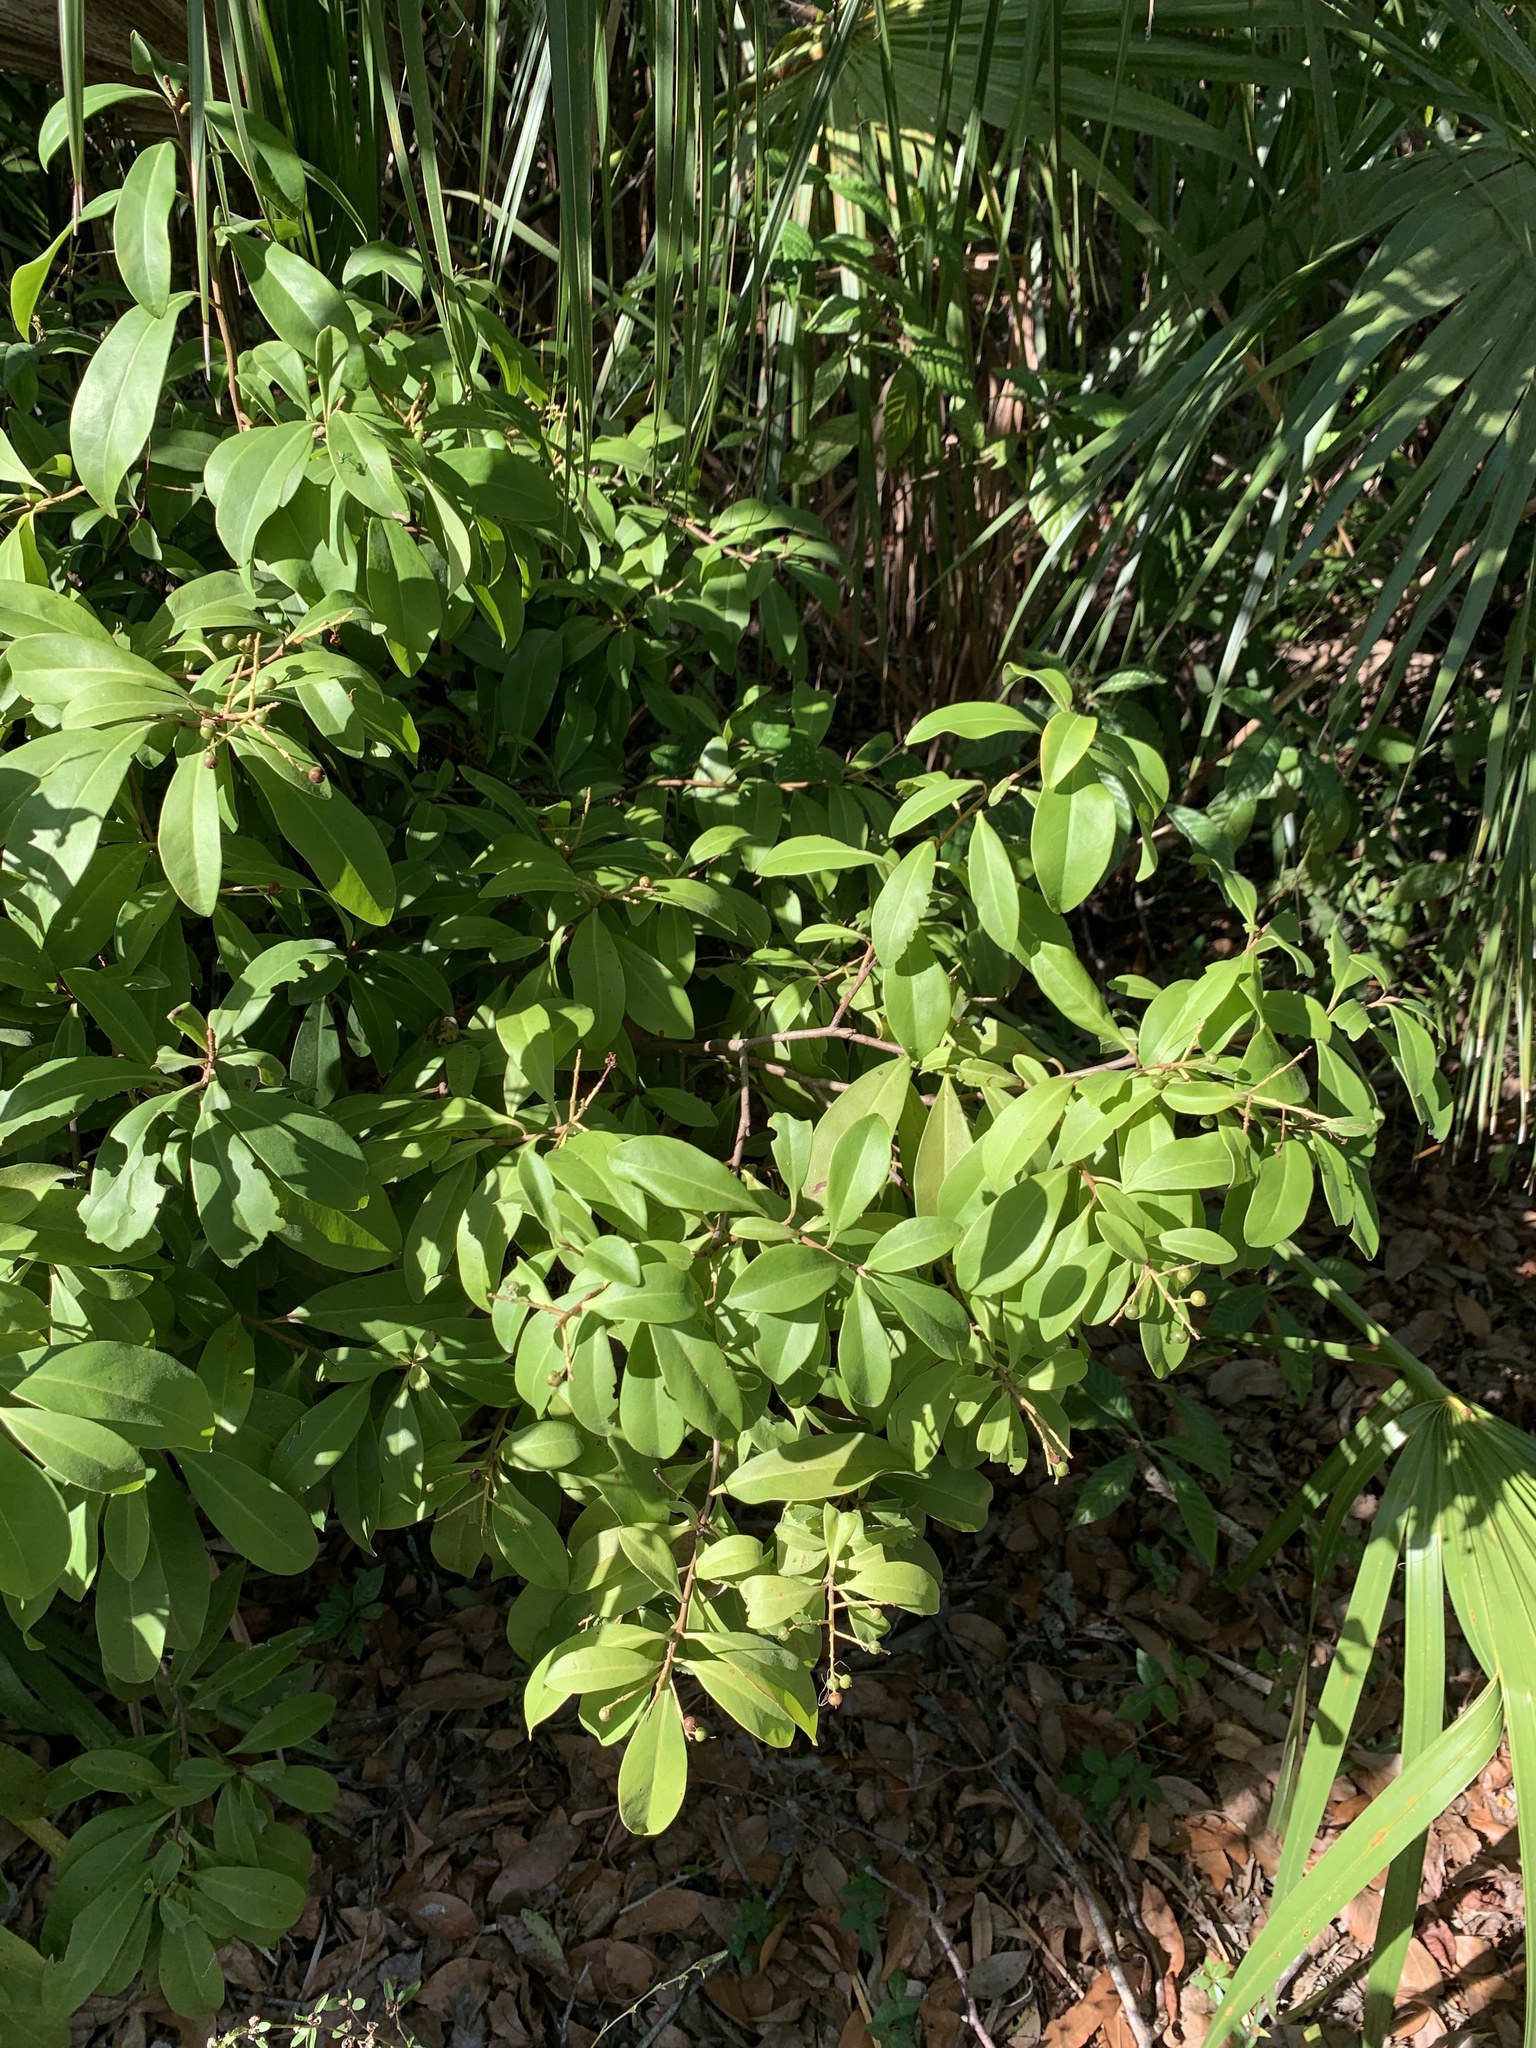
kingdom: Plantae
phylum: Tracheophyta
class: Magnoliopsida
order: Ericales
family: Primulaceae
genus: Ardisia
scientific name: Ardisia escallonioides
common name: Island marlberry
